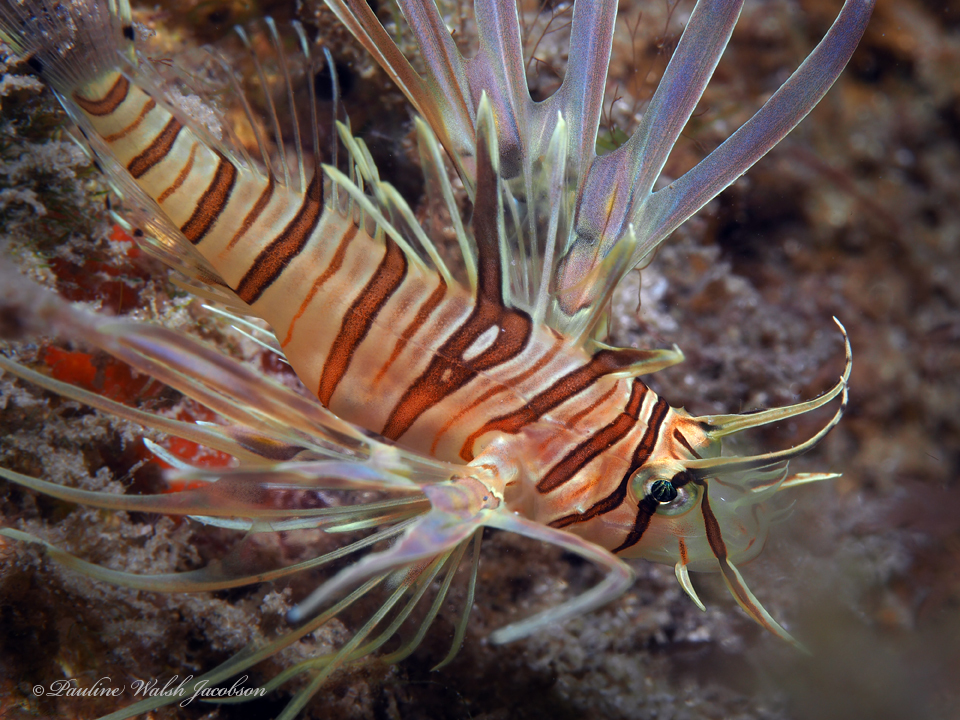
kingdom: Animalia
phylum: Chordata
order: Scorpaeniformes
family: Scorpaenidae
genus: Pterois
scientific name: Pterois volitans
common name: Lionfish
